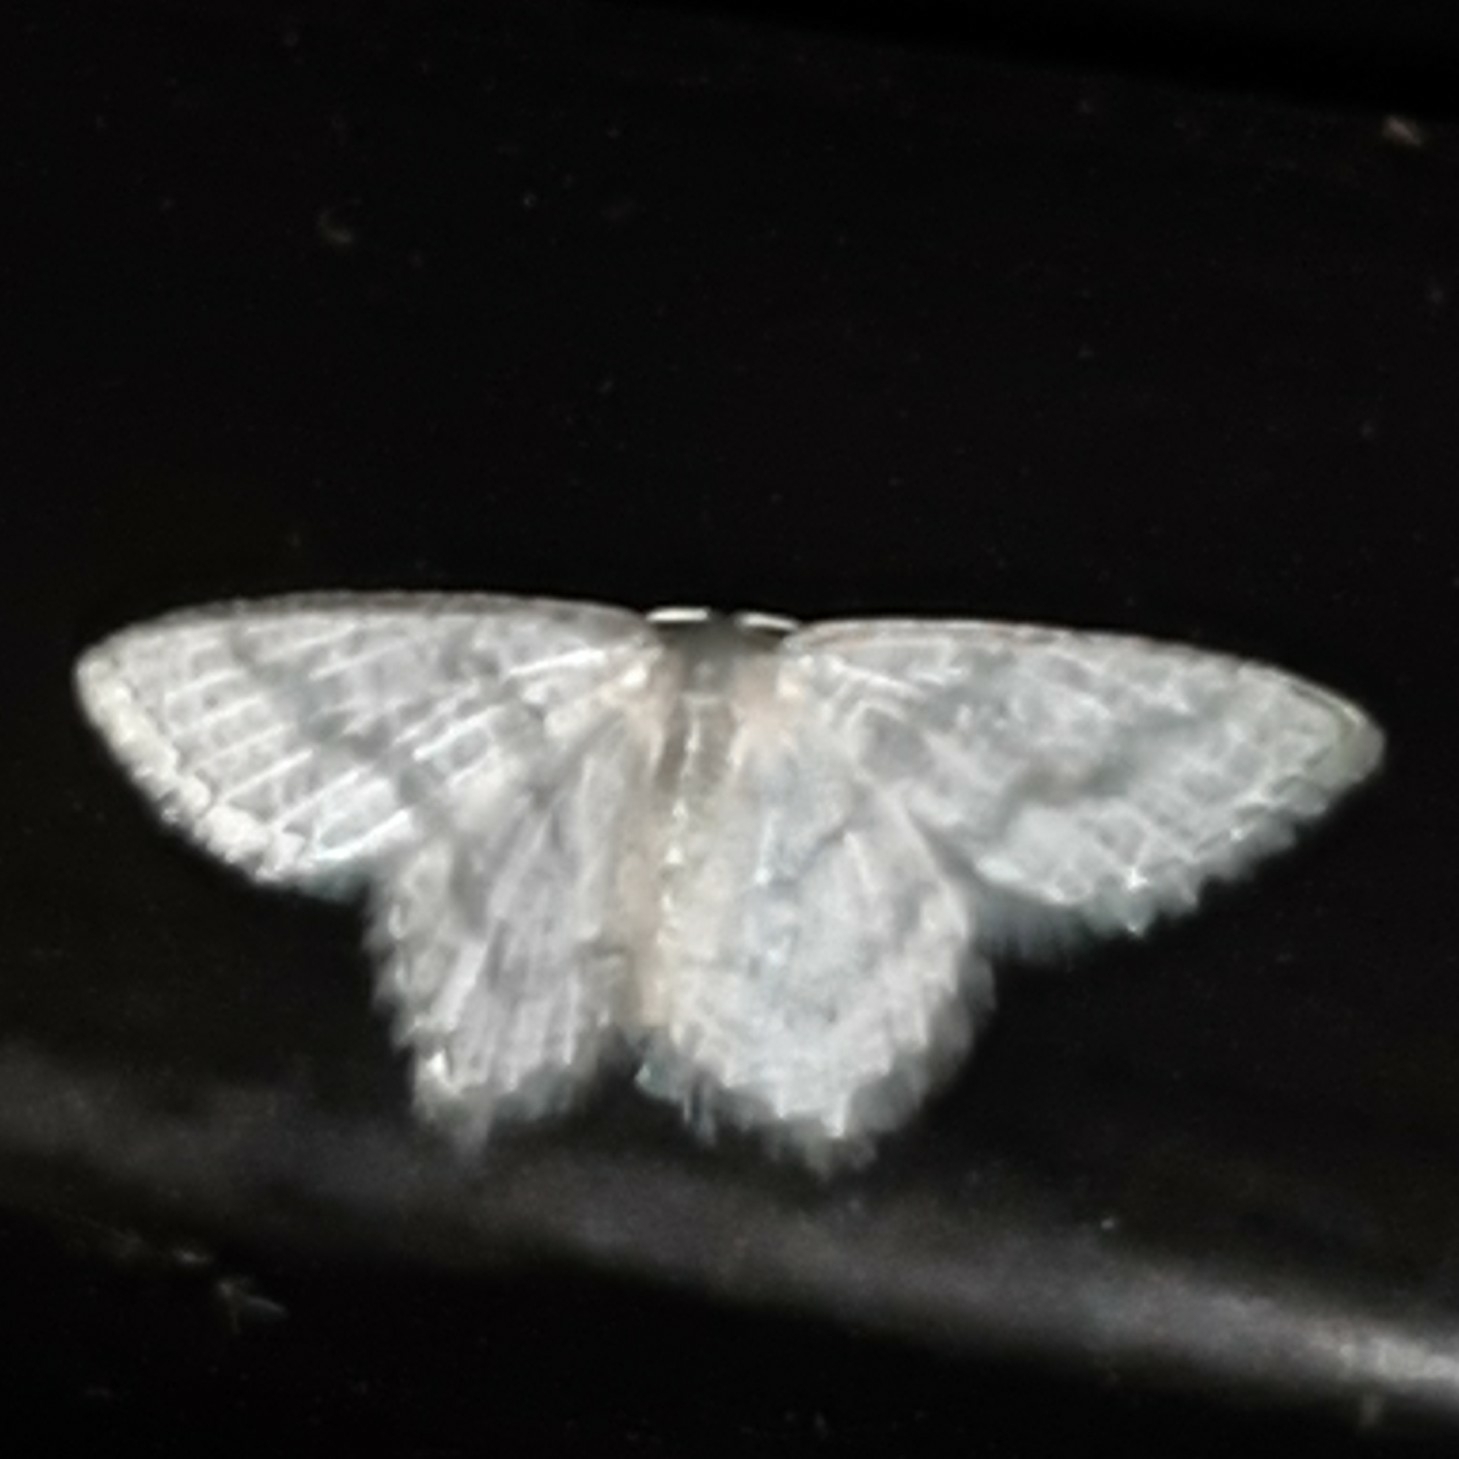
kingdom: Animalia
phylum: Arthropoda
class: Insecta
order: Lepidoptera
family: Geometridae
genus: Chloropteryx
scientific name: Chloropteryx opalaria
